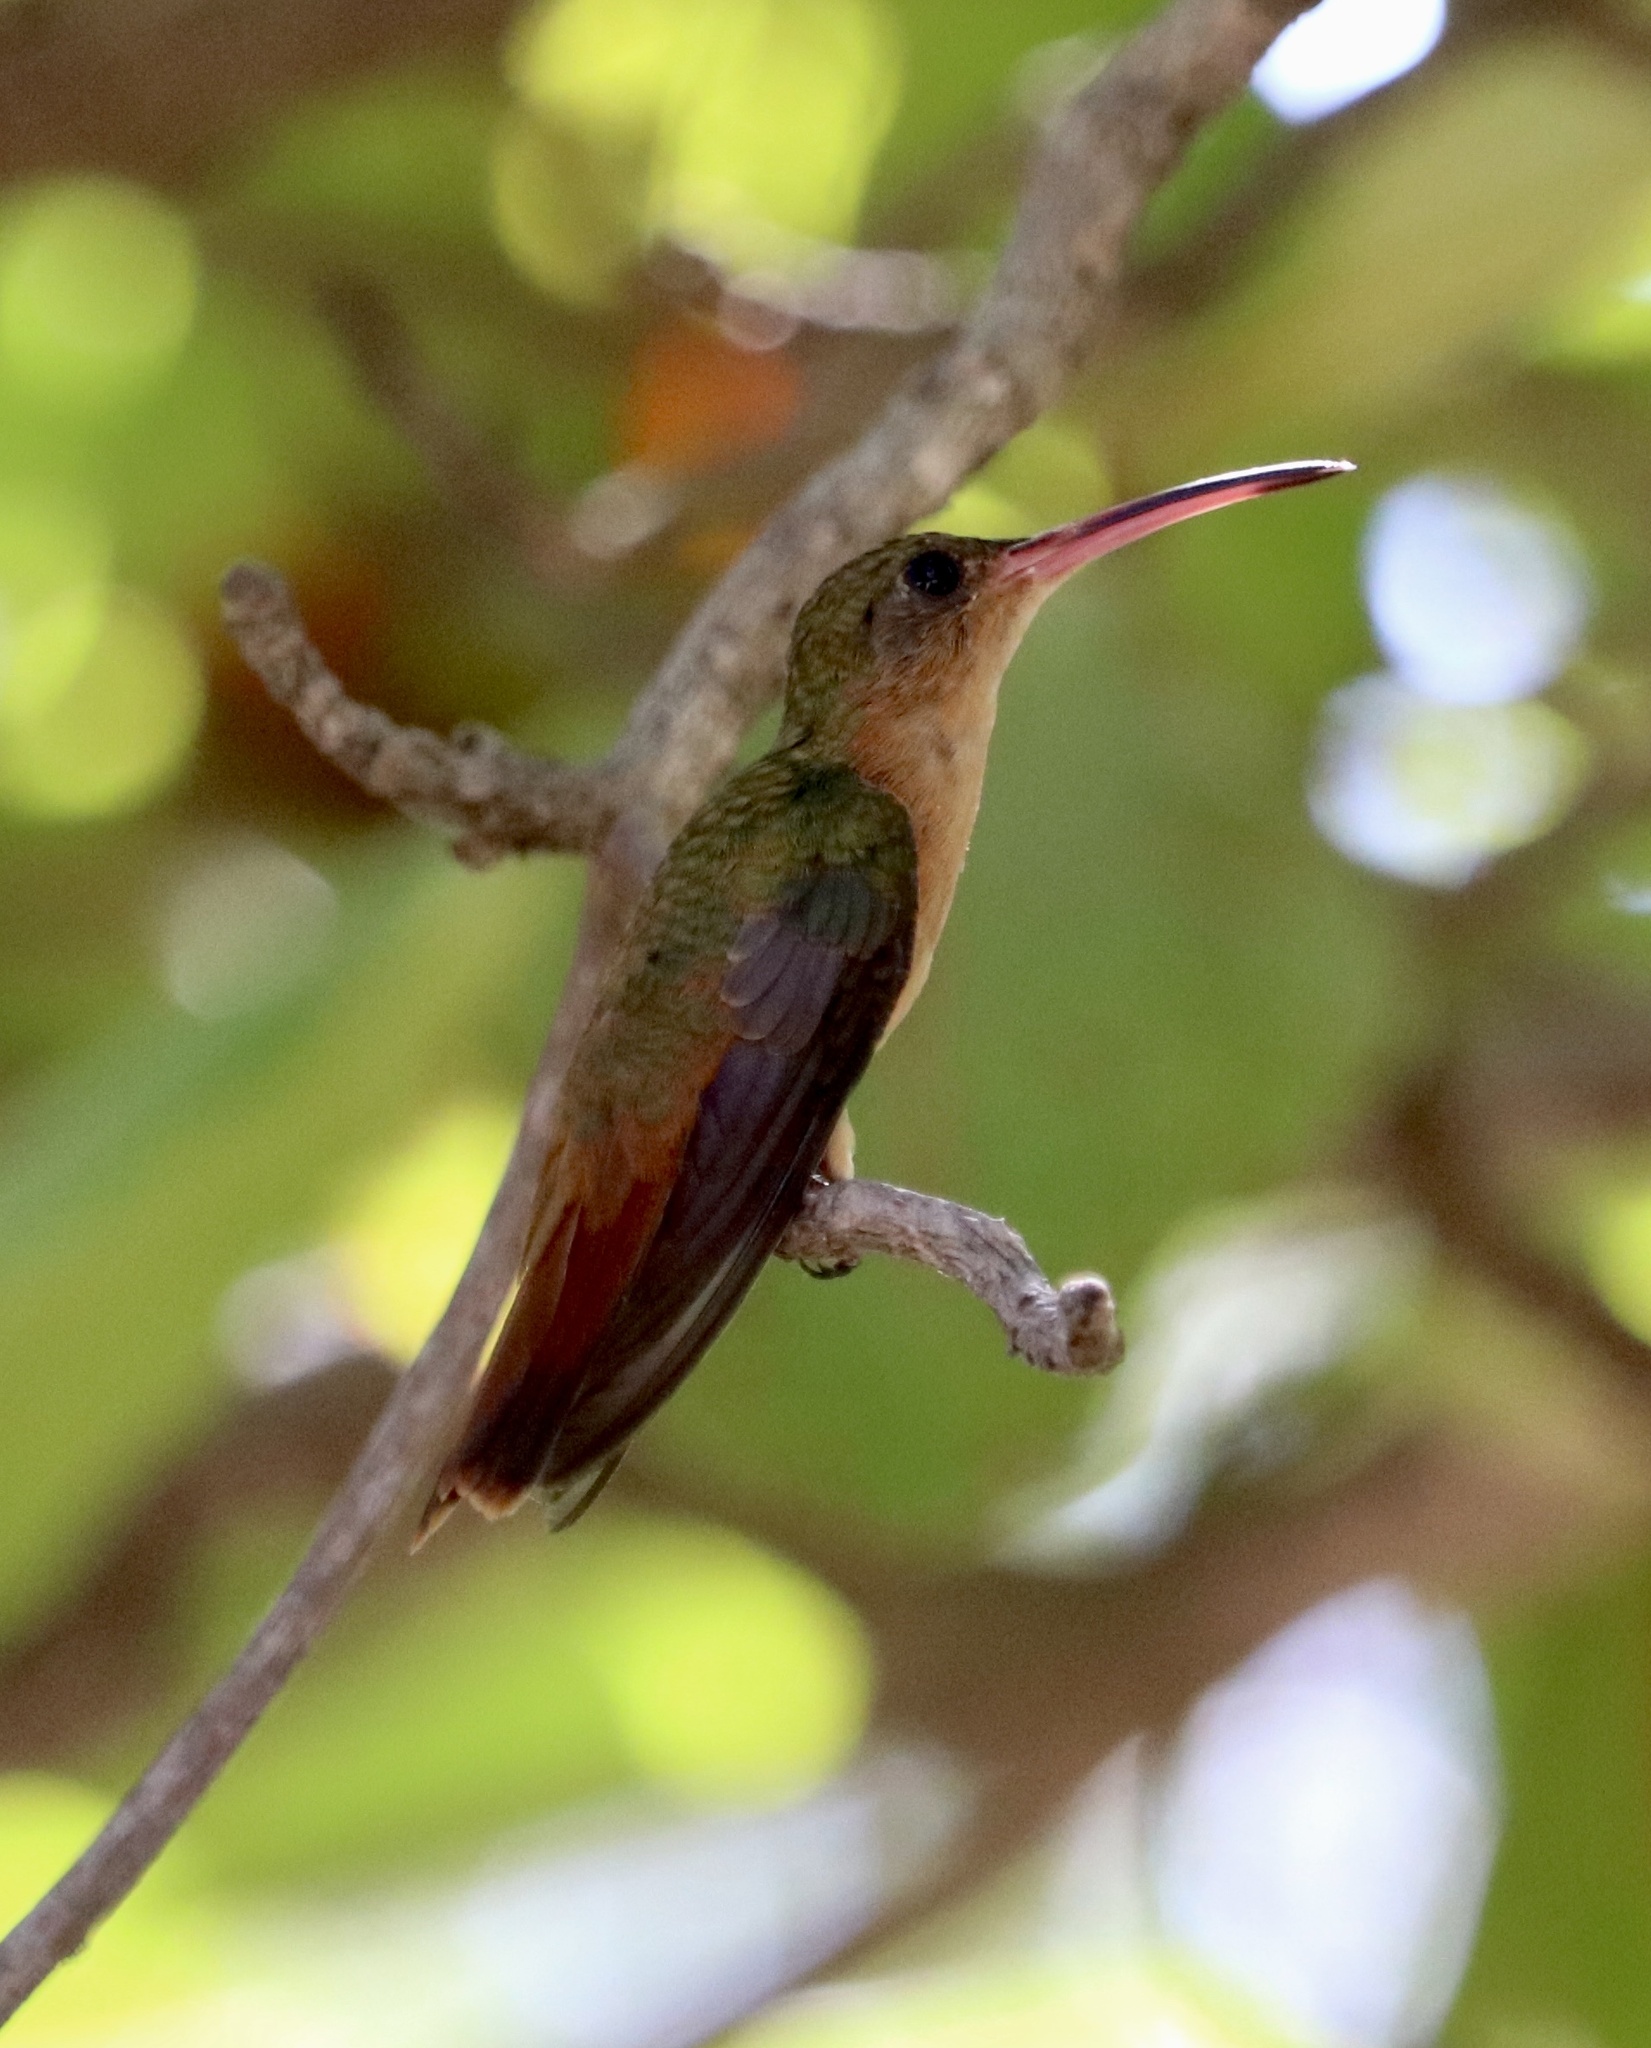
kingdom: Animalia
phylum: Chordata
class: Aves
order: Apodiformes
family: Trochilidae
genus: Amazilia
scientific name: Amazilia rutila
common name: Cinnamon hummingbird
